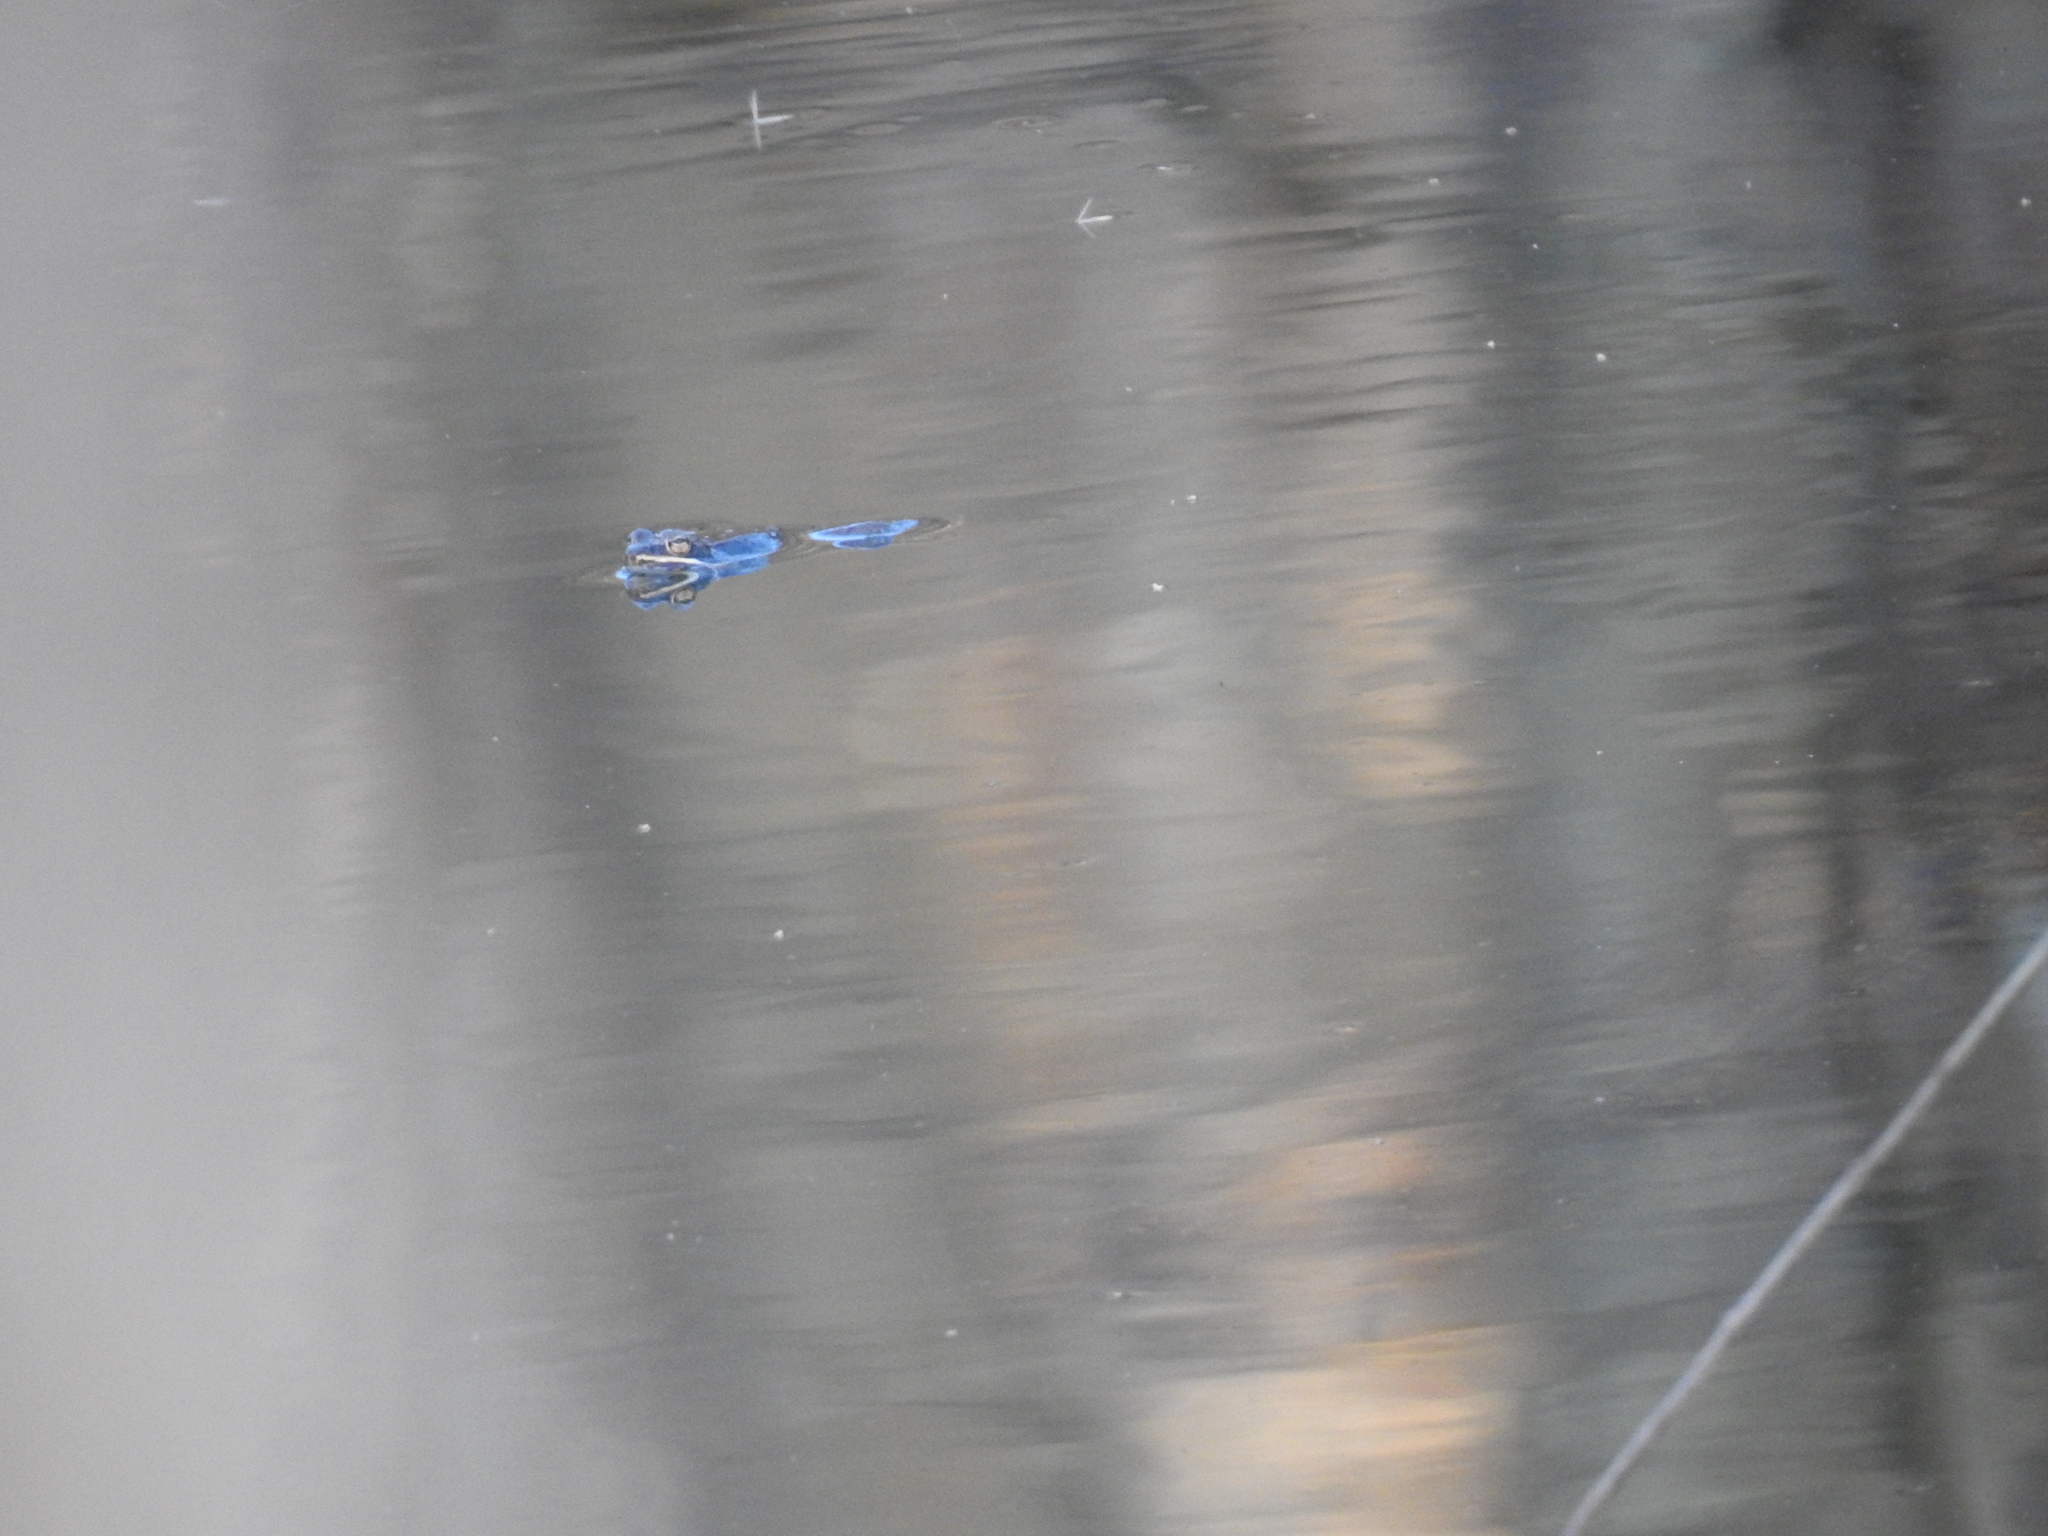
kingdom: Animalia
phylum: Chordata
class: Amphibia
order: Anura
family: Ranidae
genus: Lithobates
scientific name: Lithobates sylvaticus
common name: Wood frog
